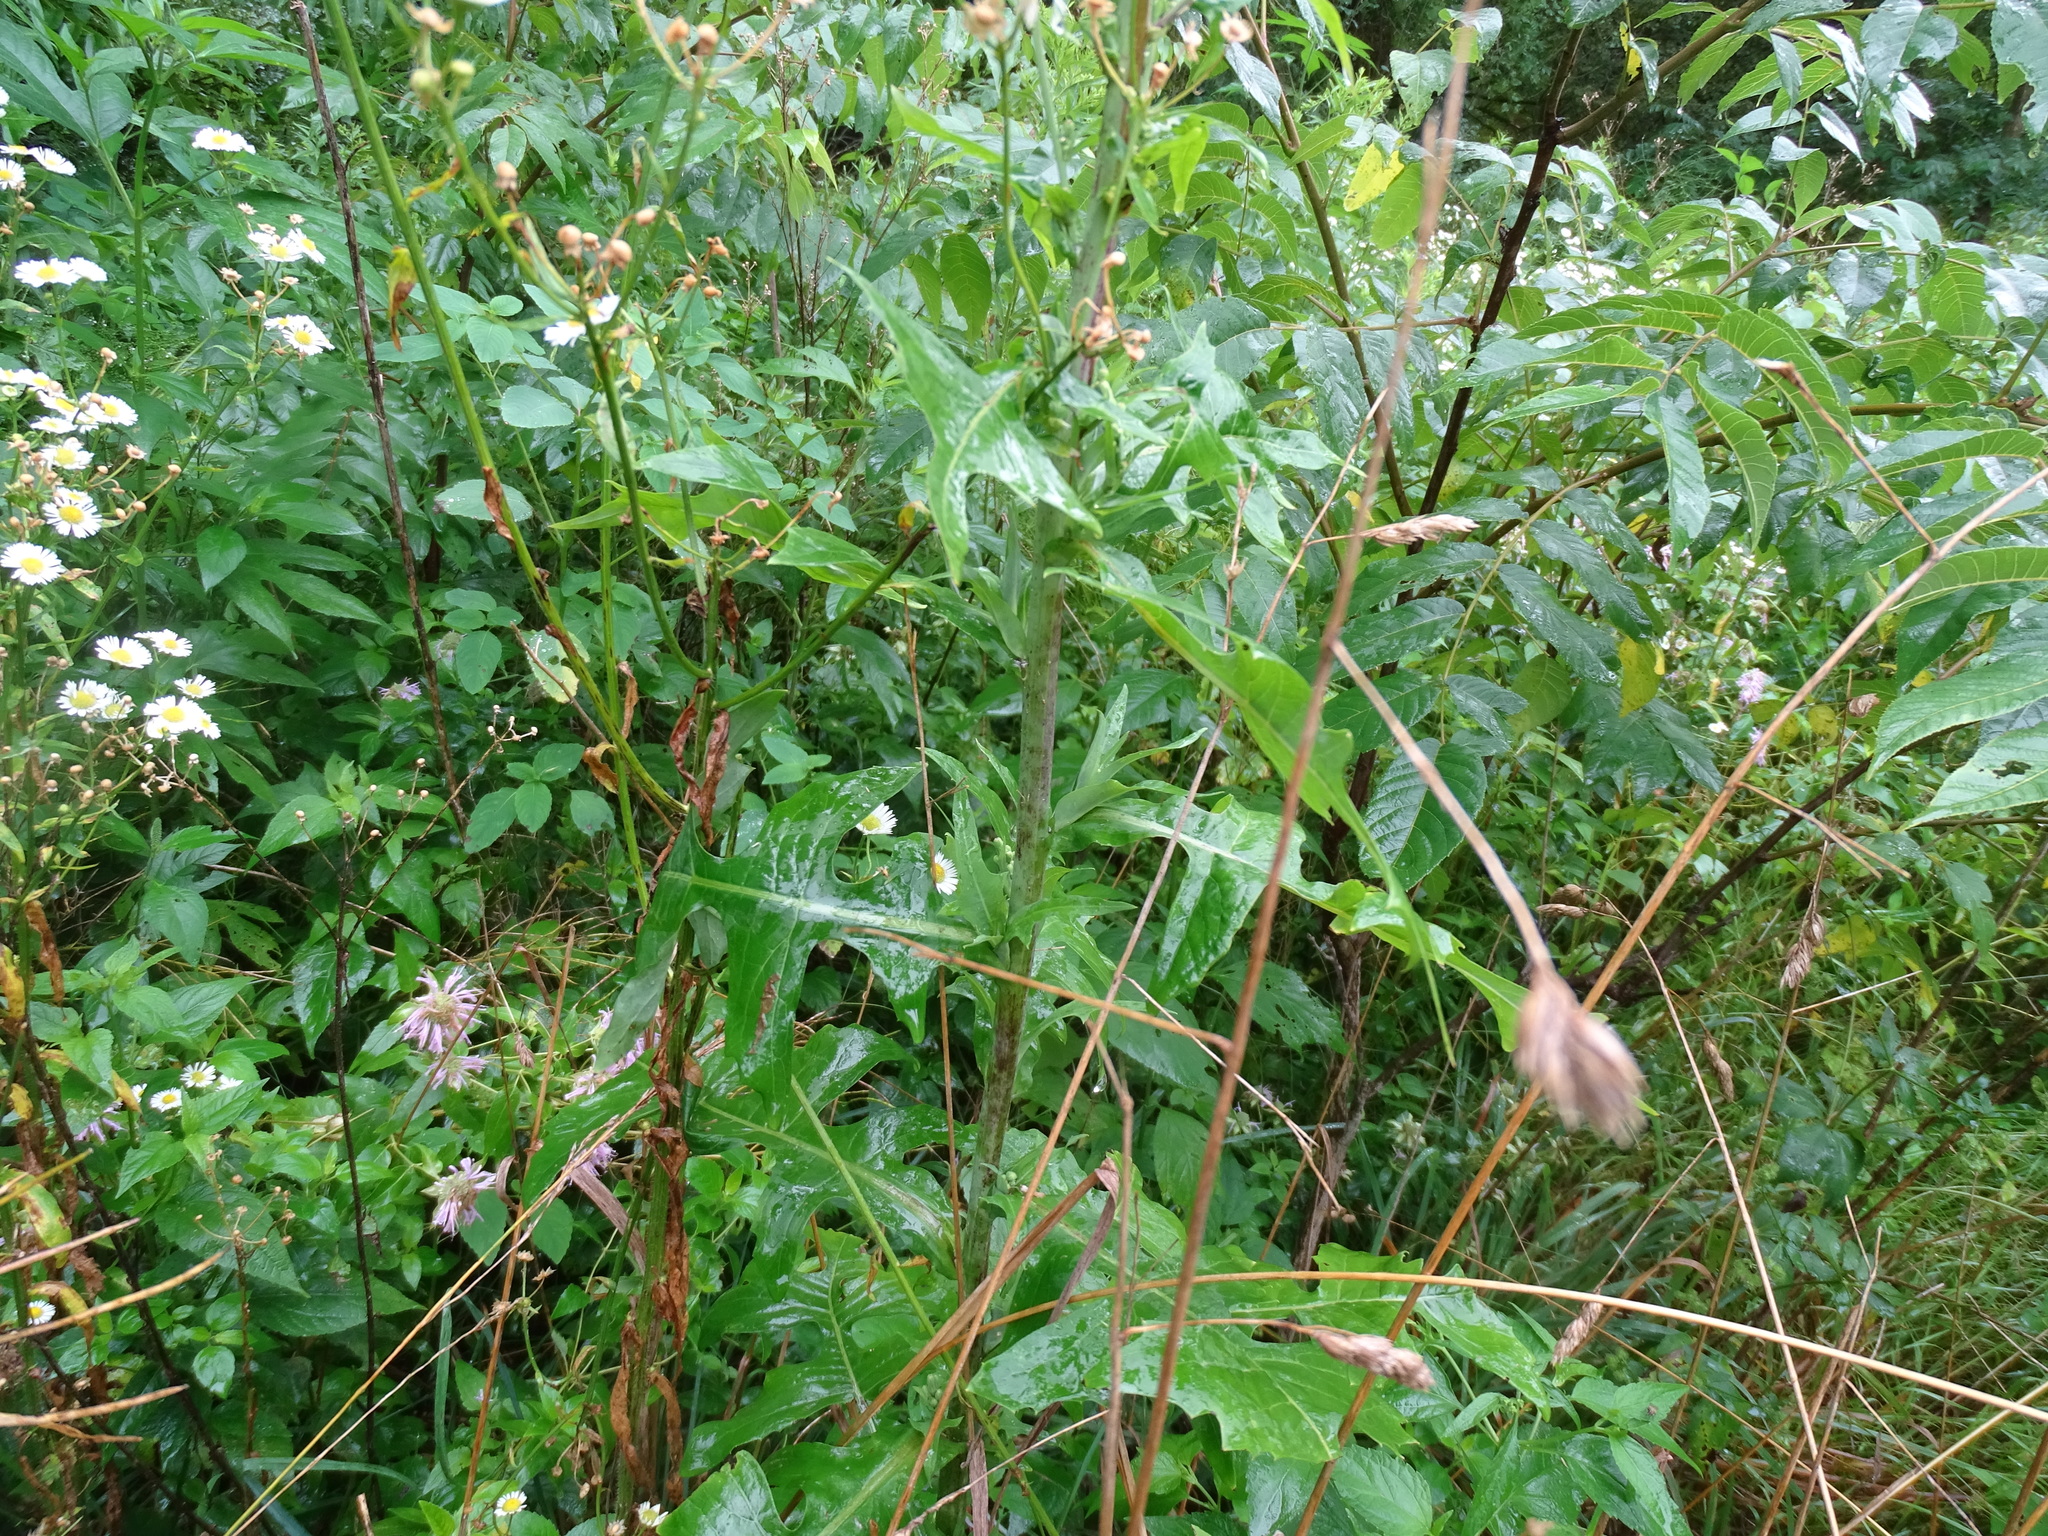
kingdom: Plantae
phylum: Tracheophyta
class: Magnoliopsida
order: Asterales
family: Asteraceae
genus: Lactuca
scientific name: Lactuca biennis
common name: Blue wood lettuce
